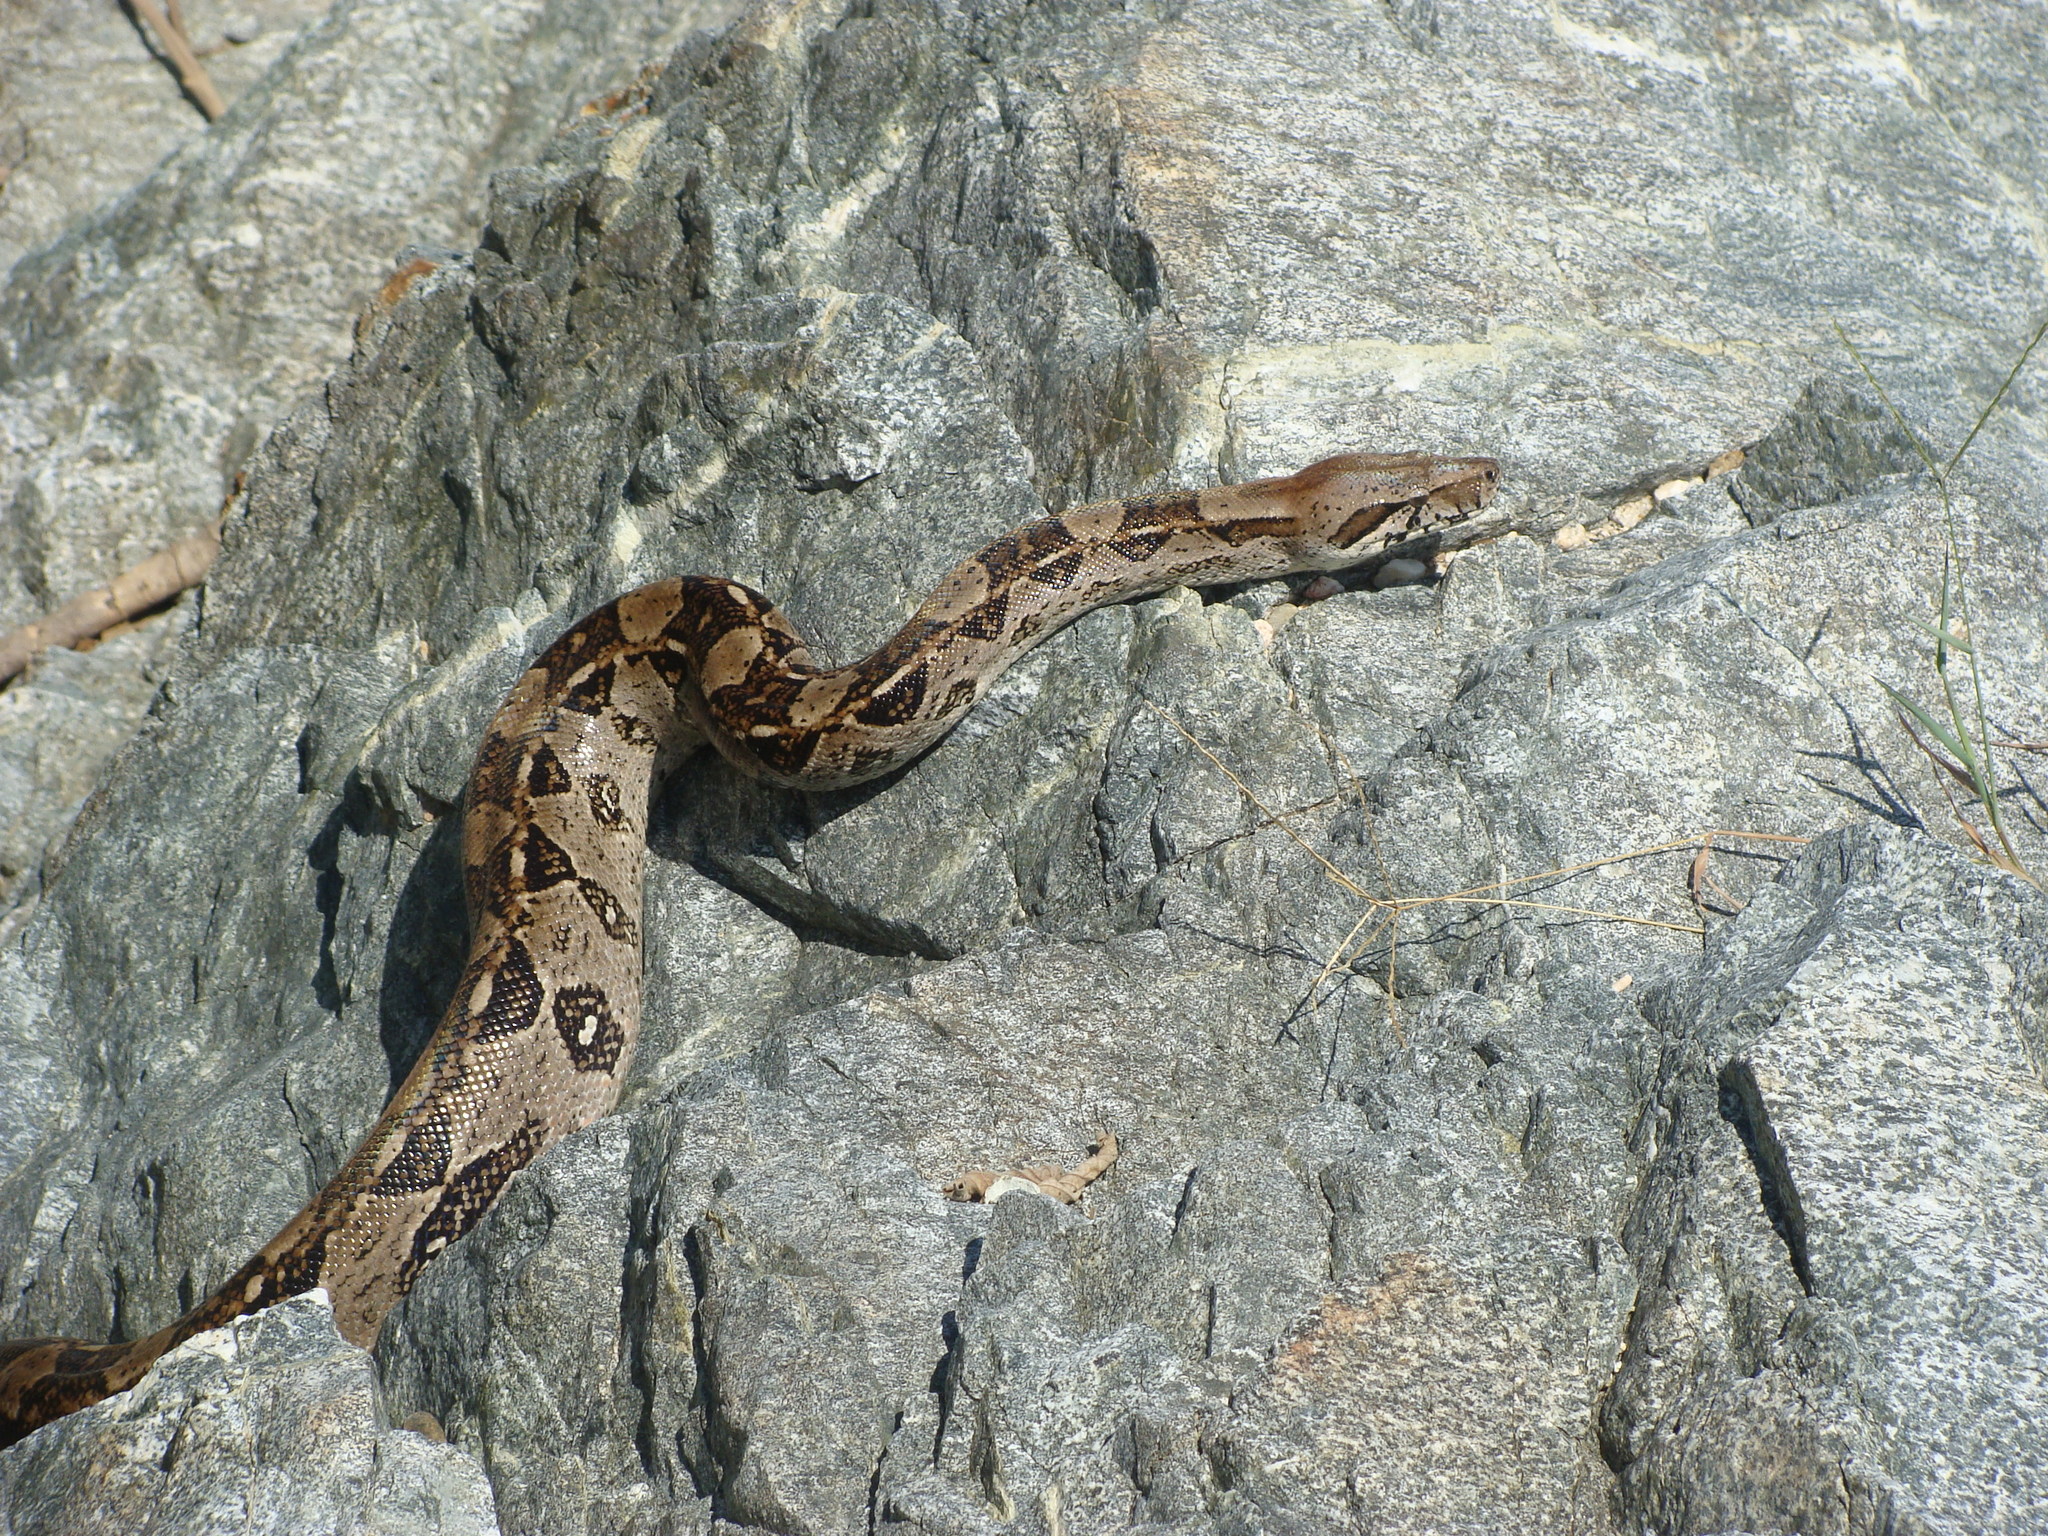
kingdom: Animalia
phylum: Chordata
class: Squamata
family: Boidae
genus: Boa
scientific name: Boa
